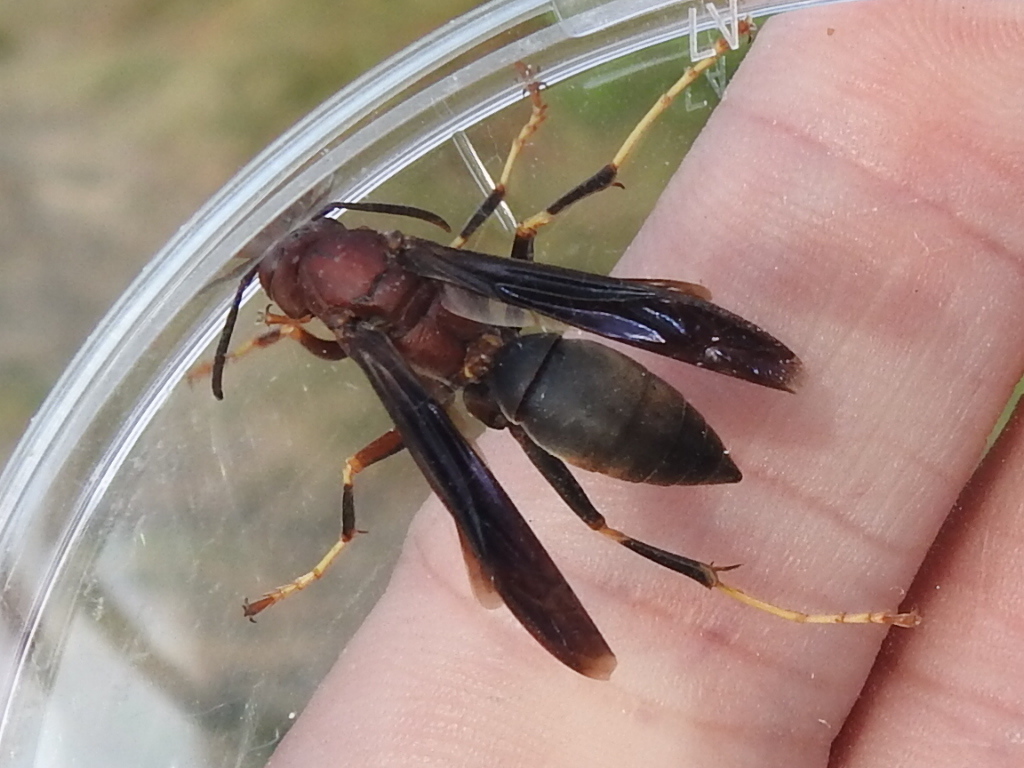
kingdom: Animalia
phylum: Arthropoda
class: Insecta
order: Hymenoptera
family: Eumenidae
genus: Polistes
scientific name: Polistes metricus
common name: Metric paper wasp
